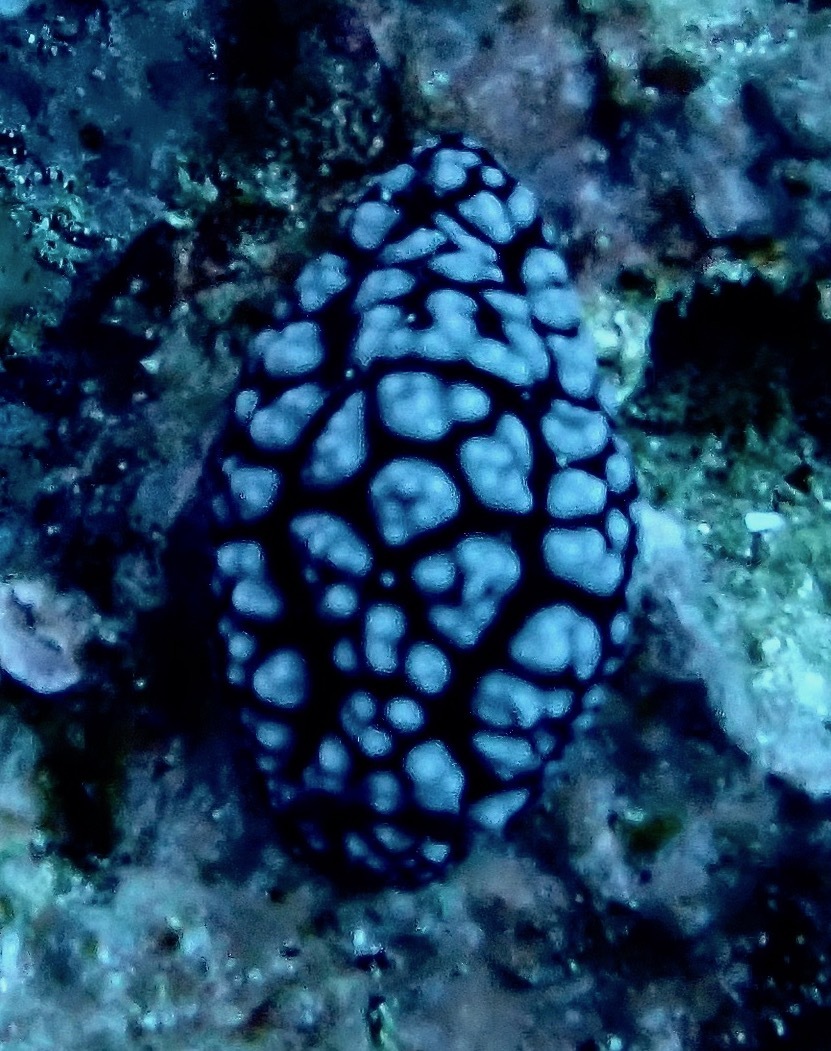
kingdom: Animalia
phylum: Mollusca
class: Gastropoda
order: Nudibranchia
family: Phyllidiidae
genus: Phyllidiella
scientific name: Phyllidiella pustulosa
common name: Pustular phyllidia
